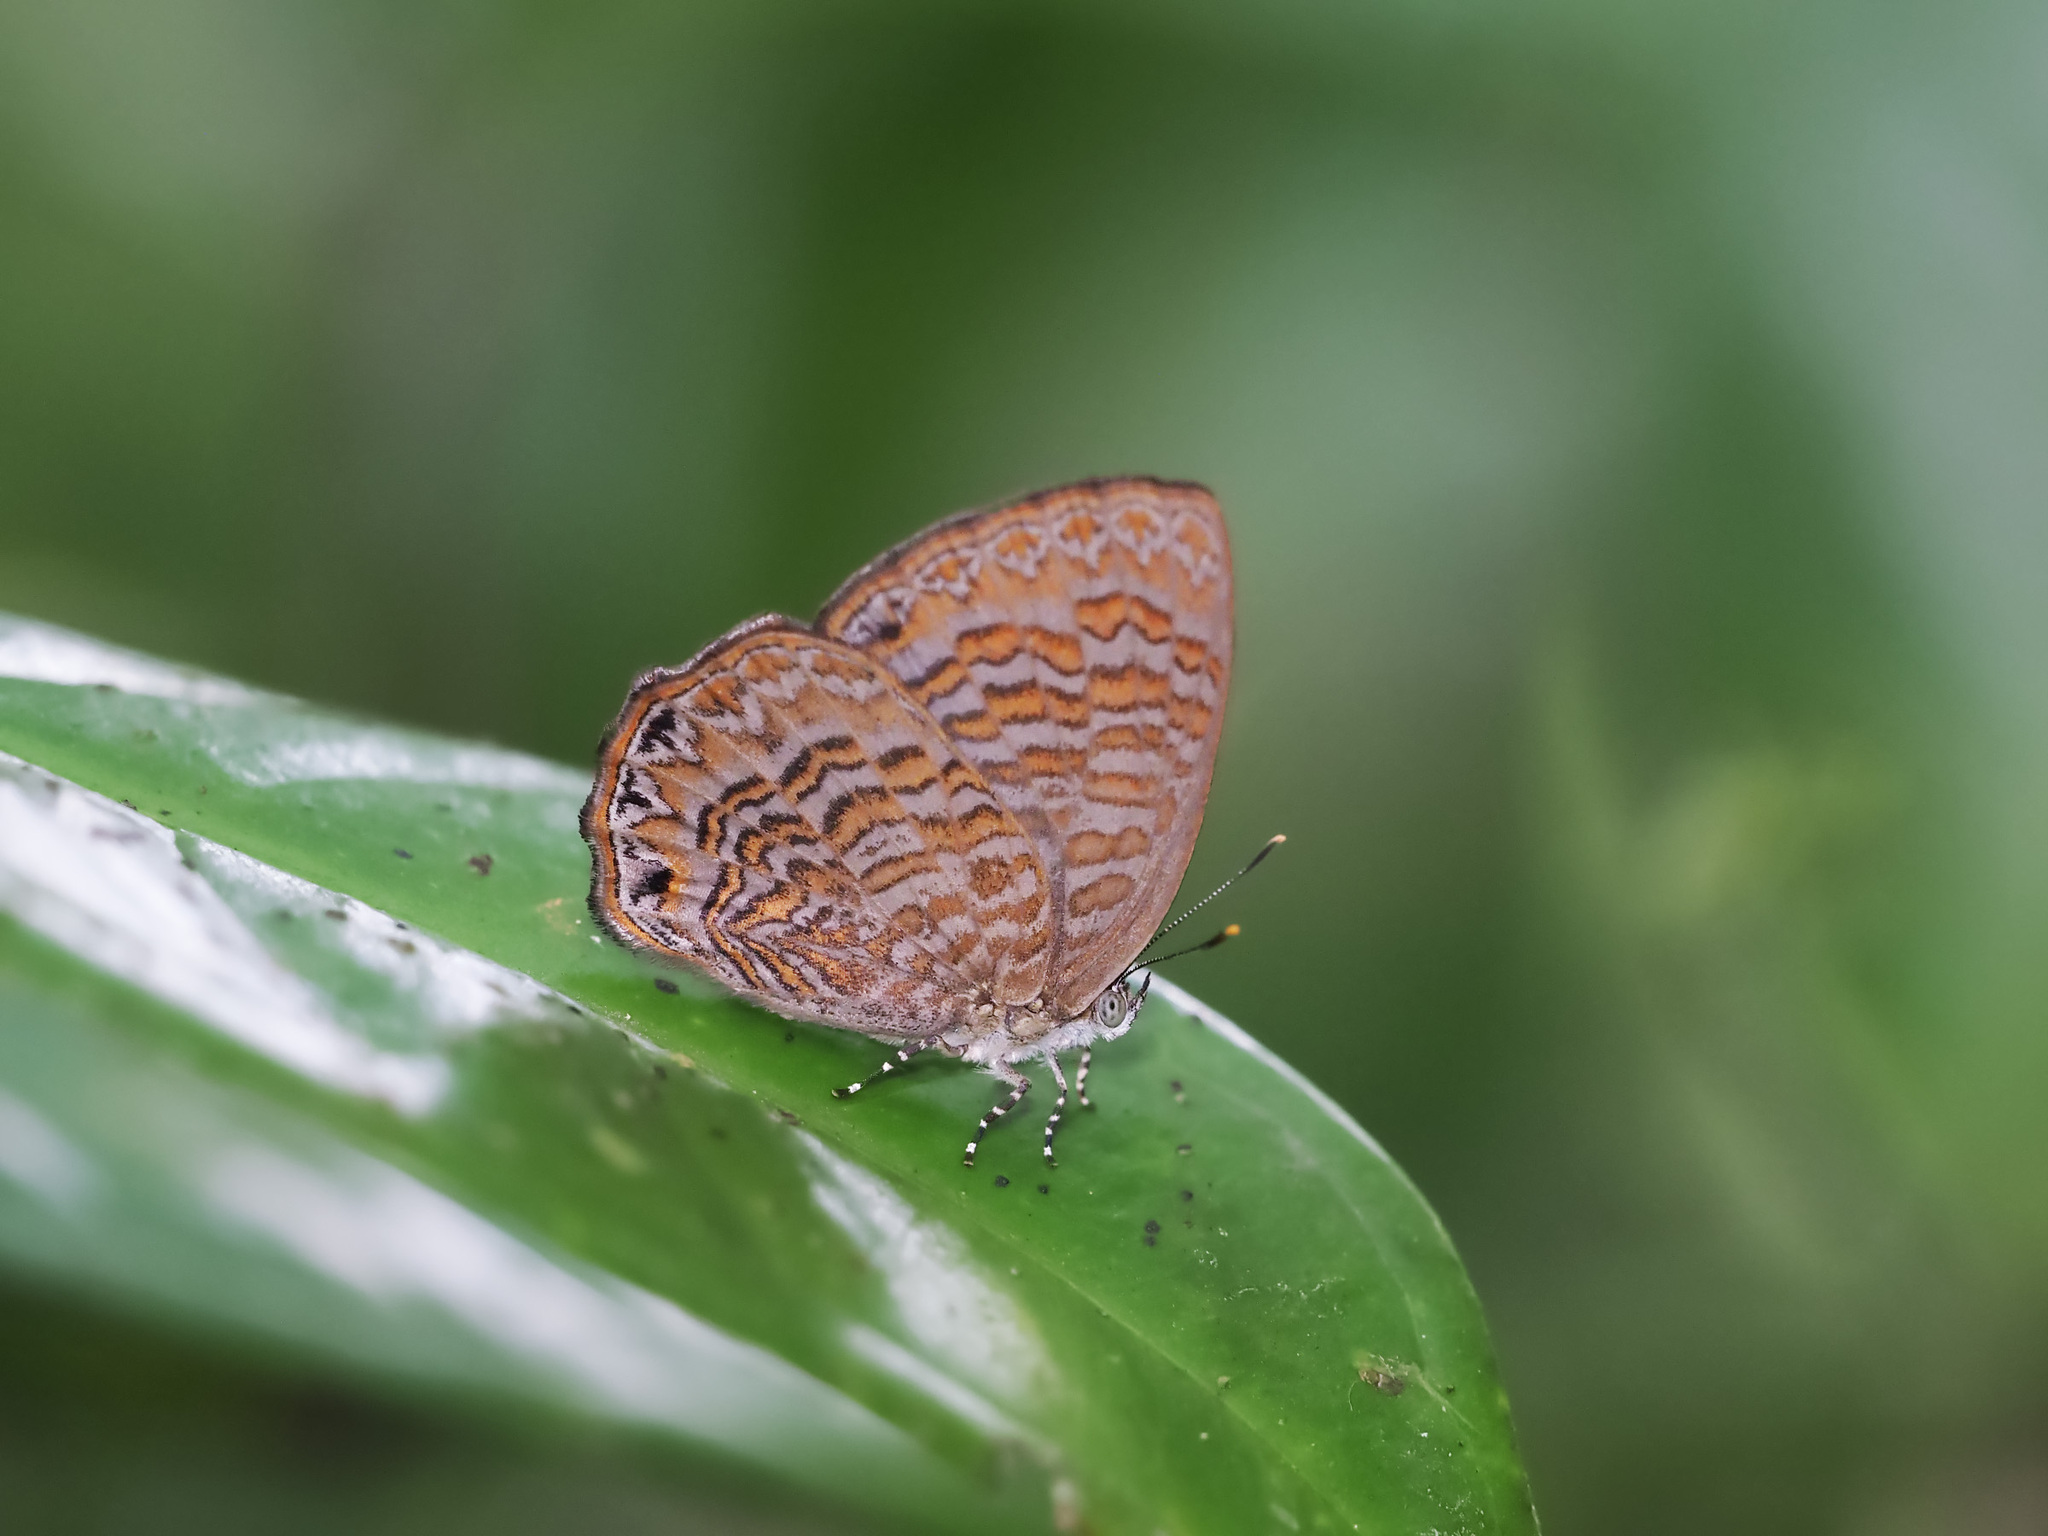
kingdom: Animalia
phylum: Arthropoda
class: Insecta
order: Lepidoptera
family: Lycaenidae
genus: Poritia
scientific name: Poritia sumatrae
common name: Sumatran gem
